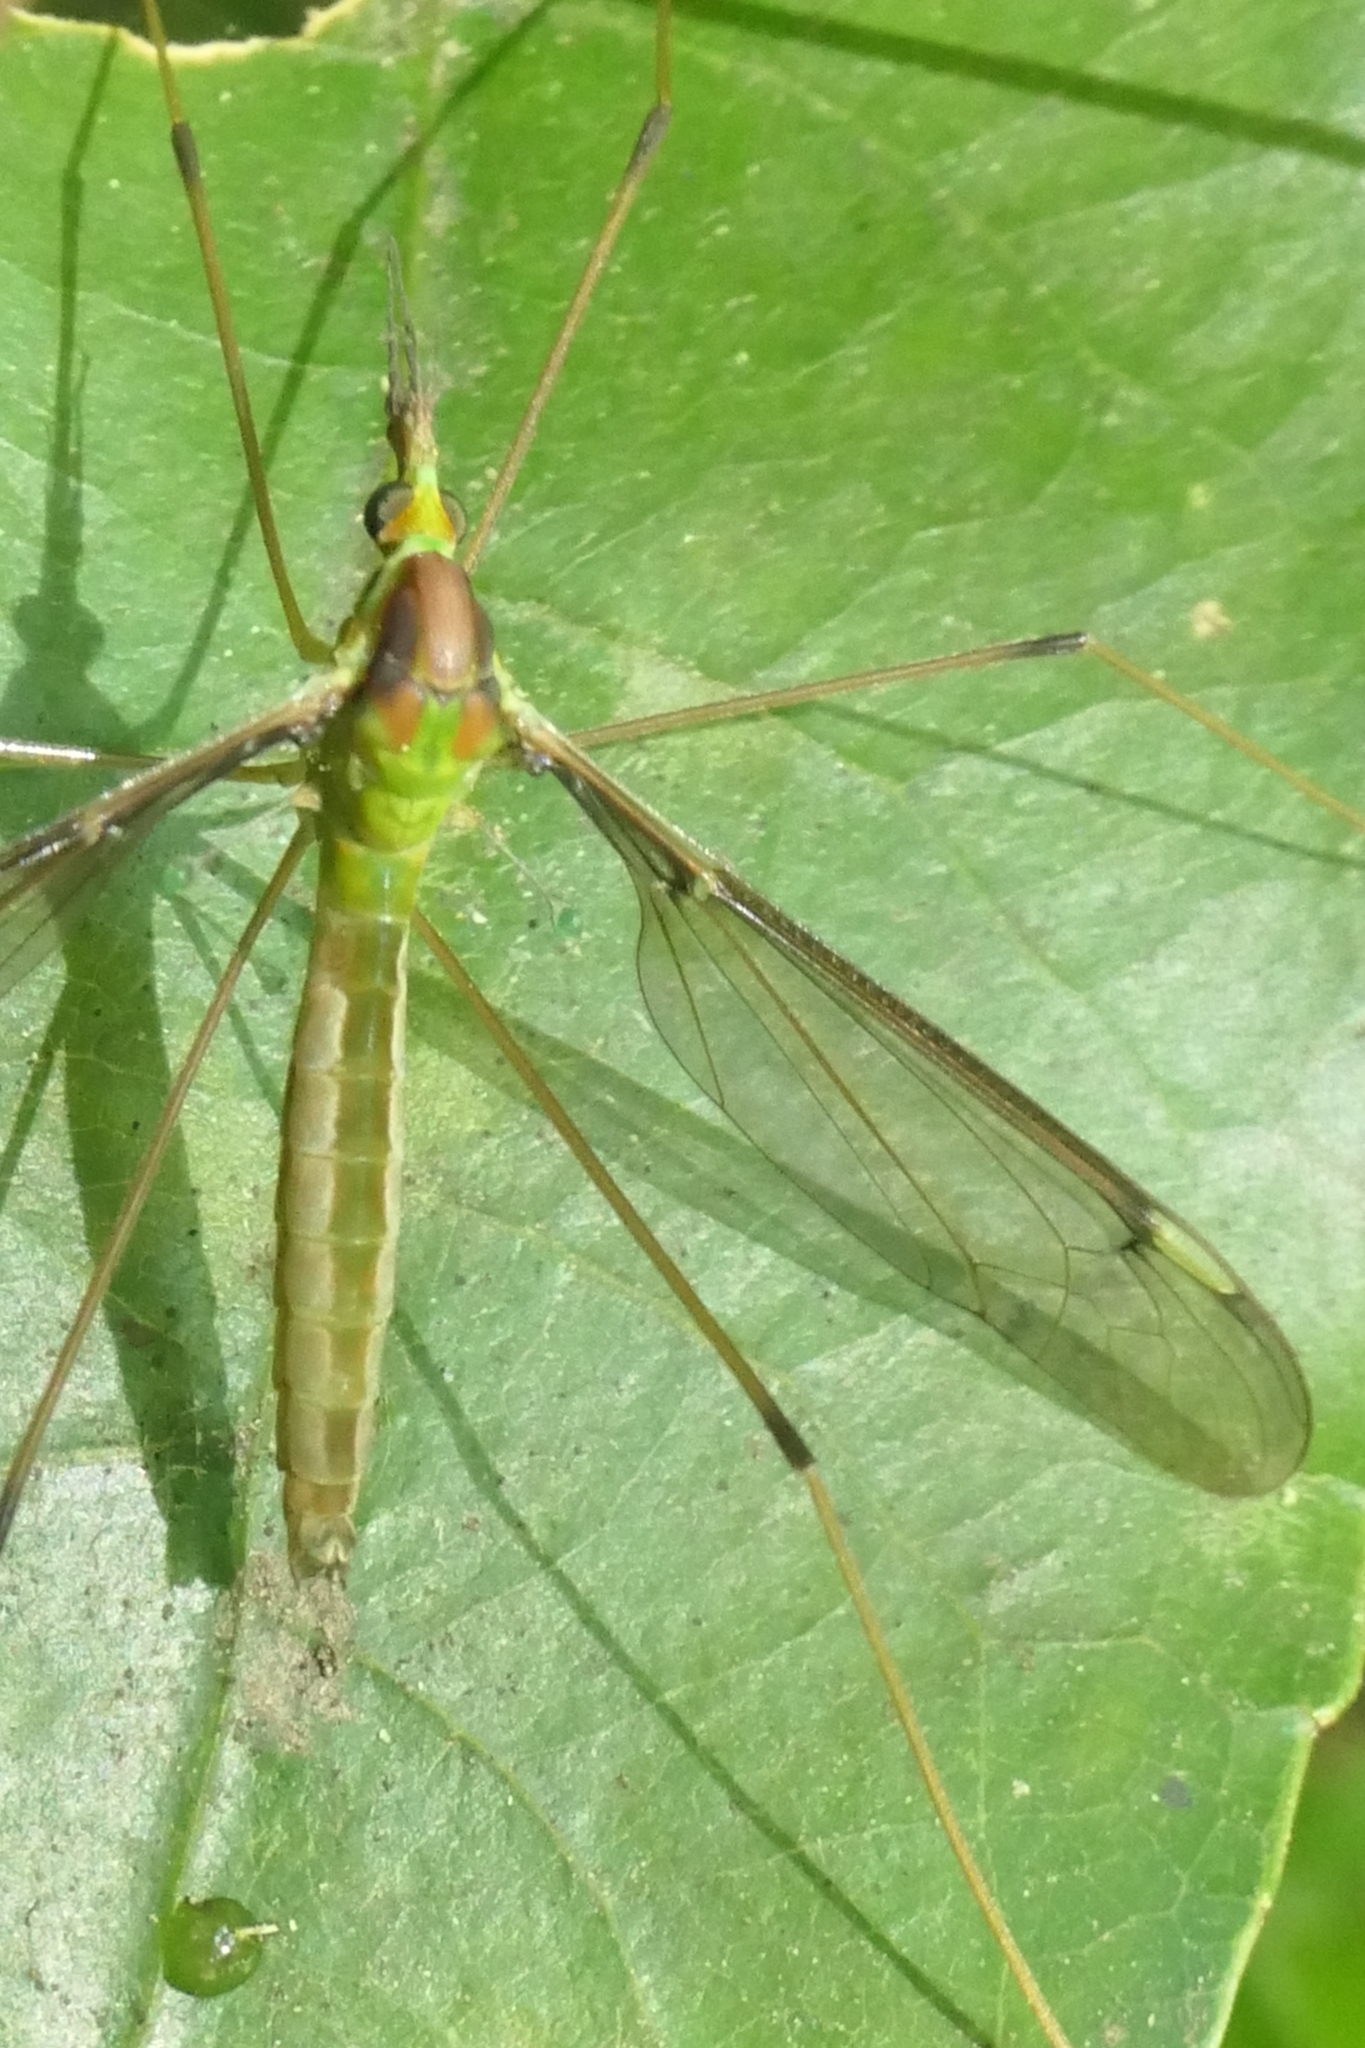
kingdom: Animalia
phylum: Arthropoda
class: Insecta
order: Diptera
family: Tipulidae
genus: Leptotarsus
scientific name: Leptotarsus albistigma
